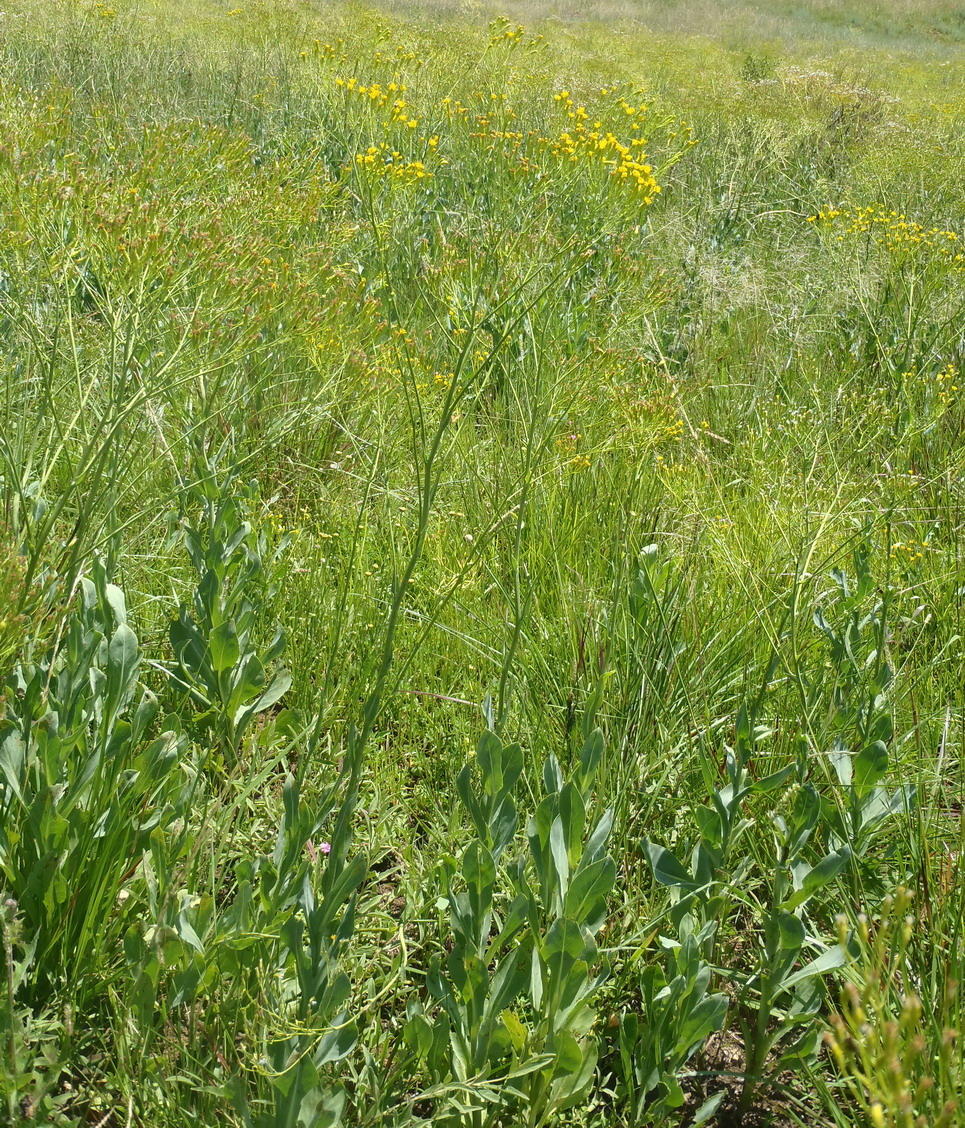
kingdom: Plantae
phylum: Tracheophyta
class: Magnoliopsida
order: Asterales
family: Asteraceae
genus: Senecio
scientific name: Senecio isatidioides
